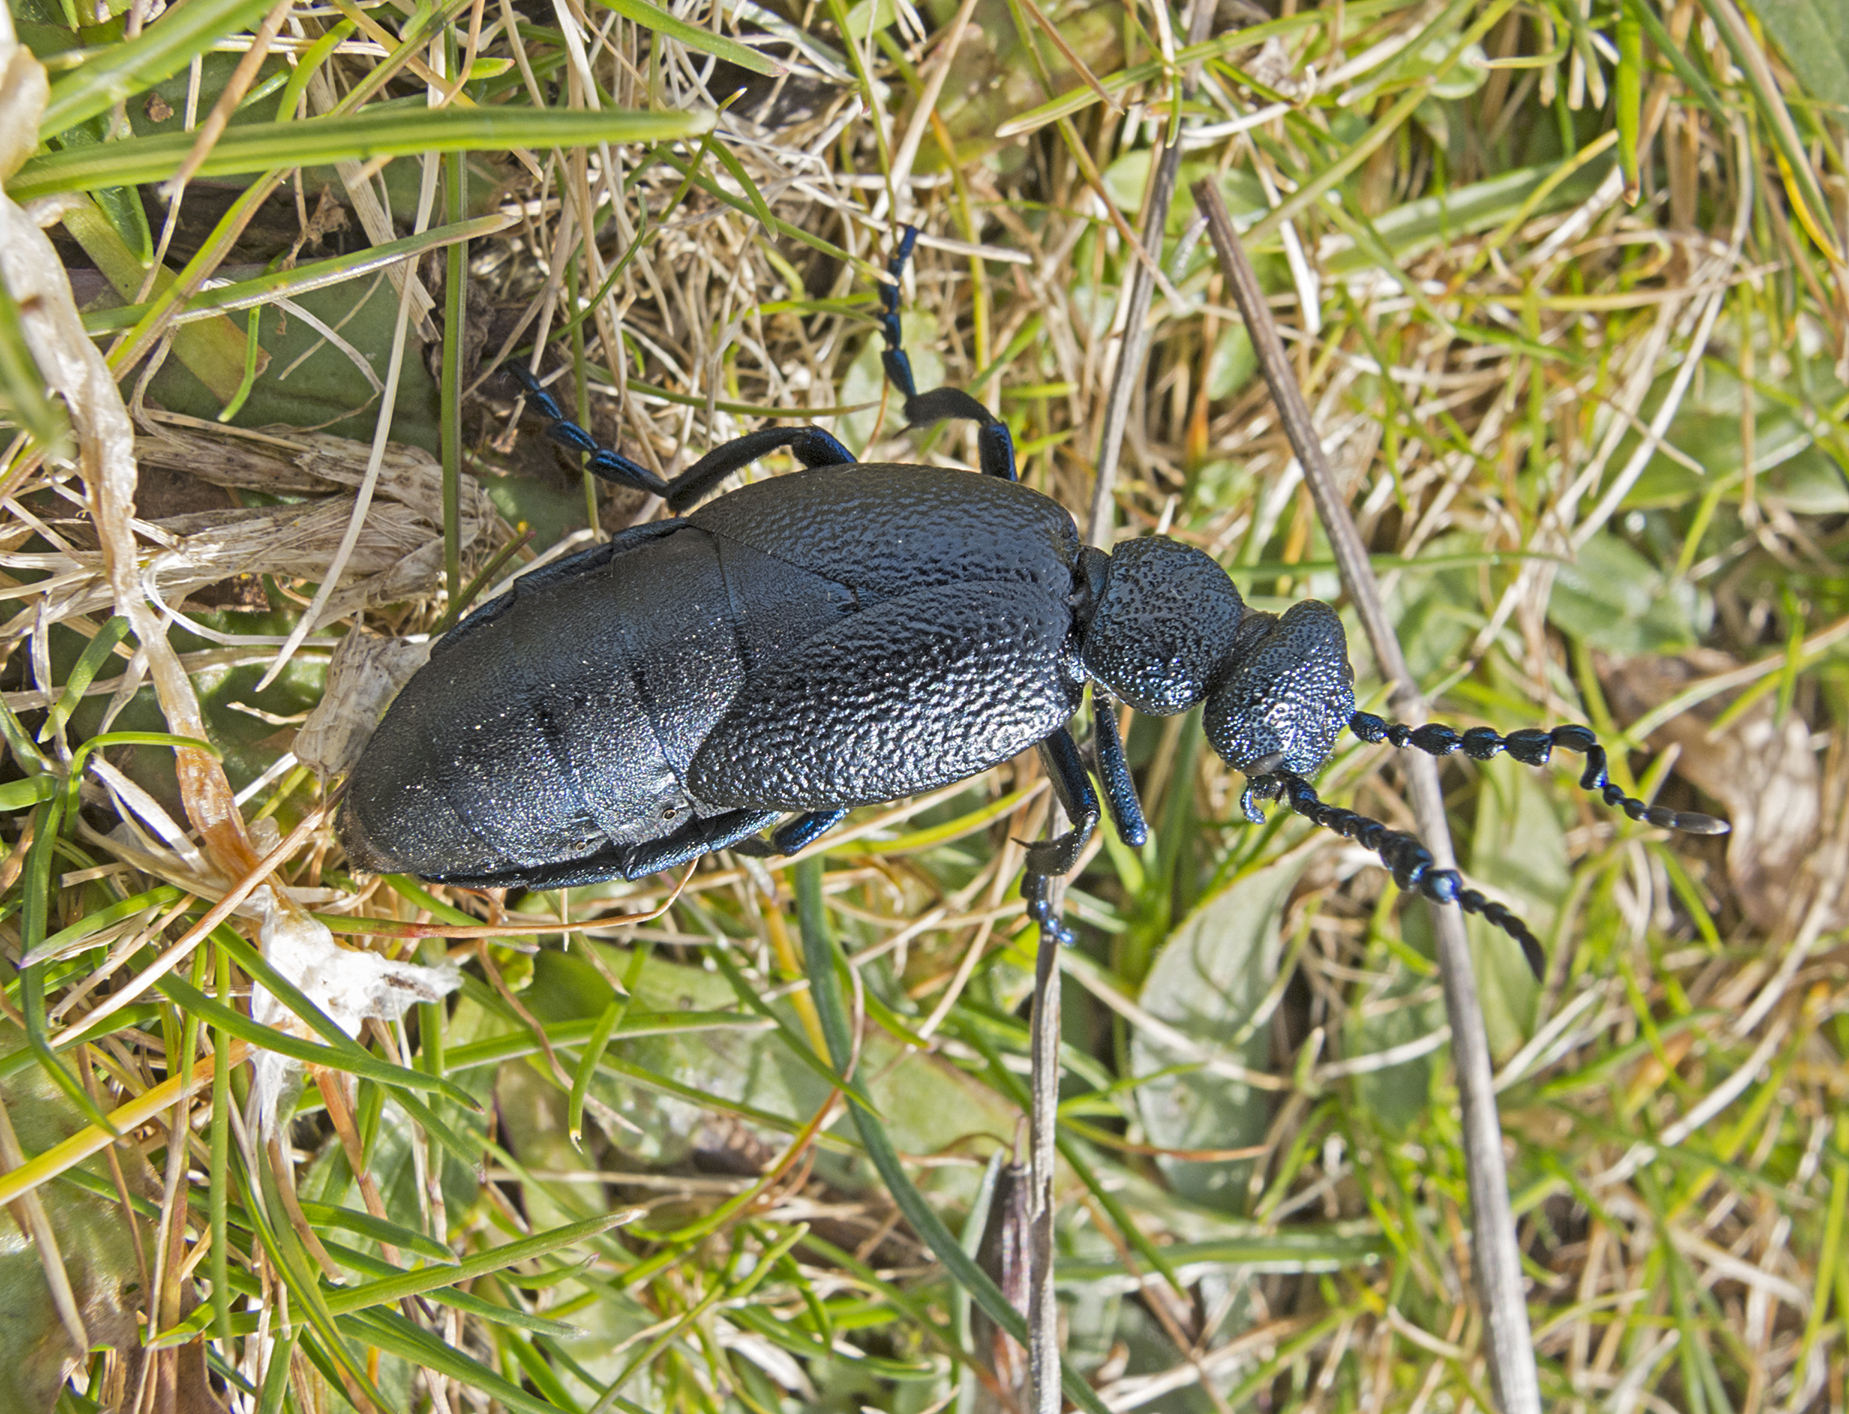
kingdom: Animalia
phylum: Arthropoda
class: Insecta
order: Coleoptera
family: Meloidae
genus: Meloe
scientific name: Meloe proscarabaeus
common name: Black oil-beetle
